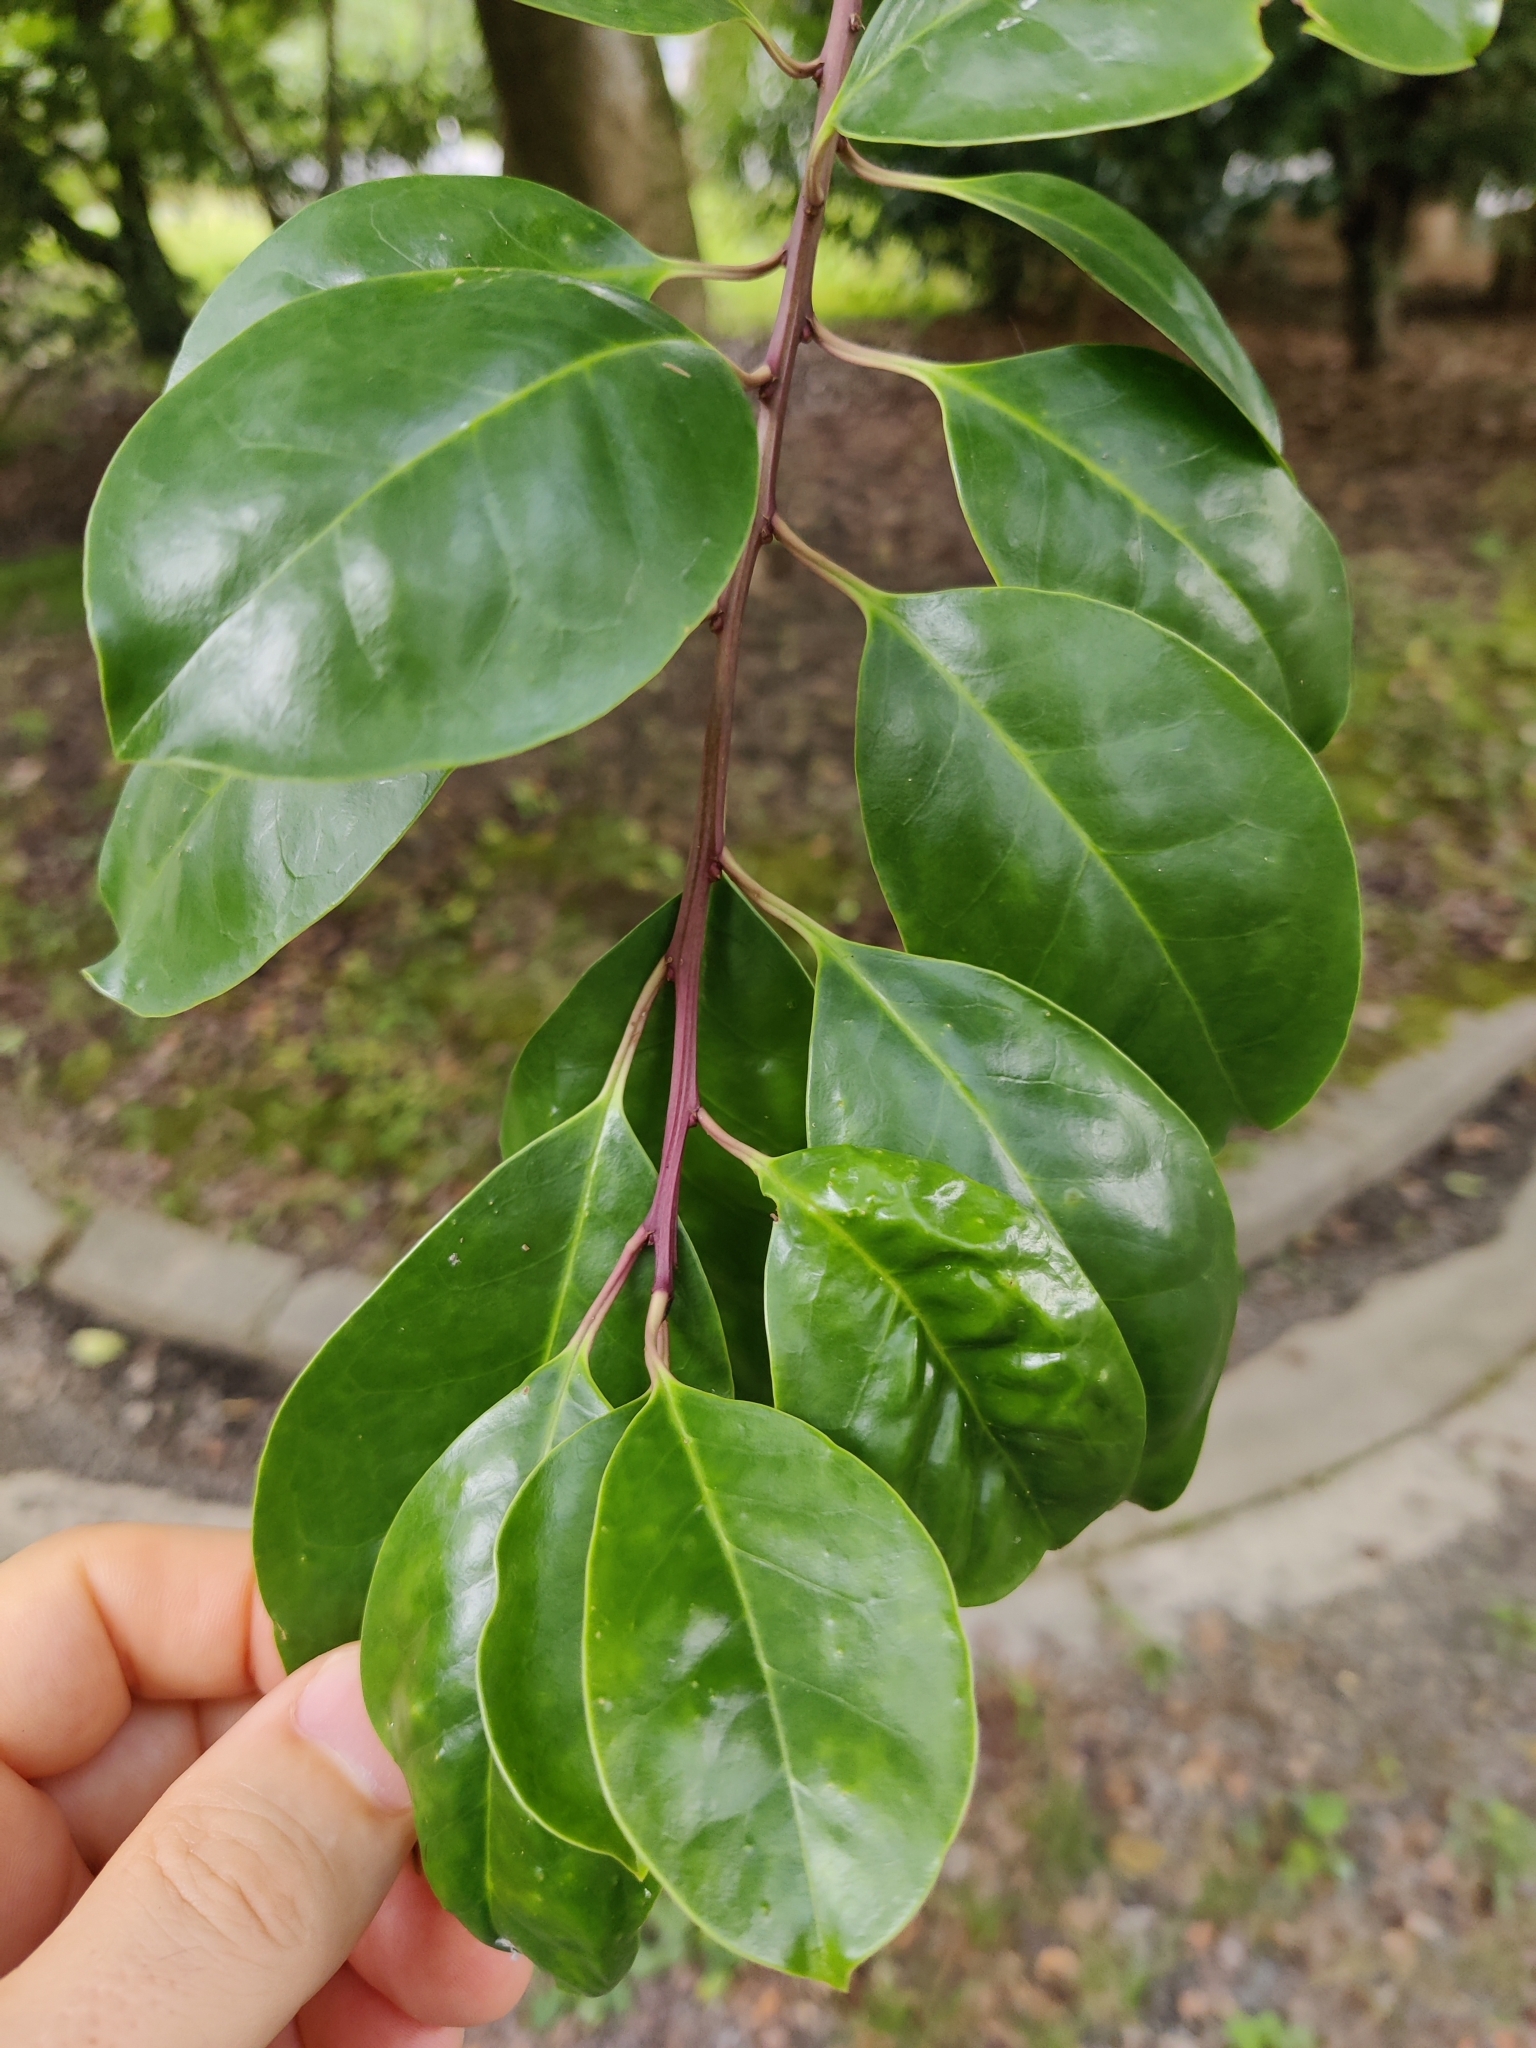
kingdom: Plantae
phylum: Tracheophyta
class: Magnoliopsida
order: Aquifoliales
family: Aquifoliaceae
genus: Ilex
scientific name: Ilex rotunda
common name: Kurogane holly
